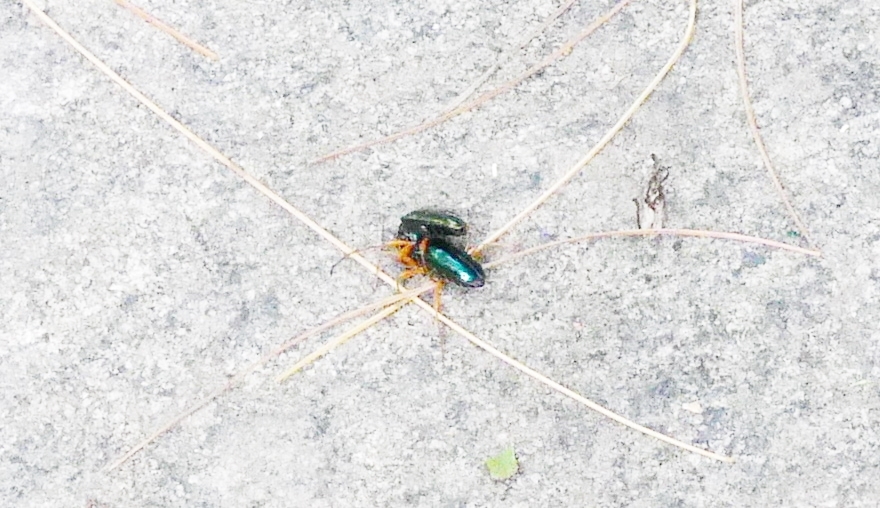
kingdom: Animalia
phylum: Arthropoda
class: Insecta
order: Coleoptera
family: Cerambycidae
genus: Gaurotes
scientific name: Gaurotes cyanipennis
